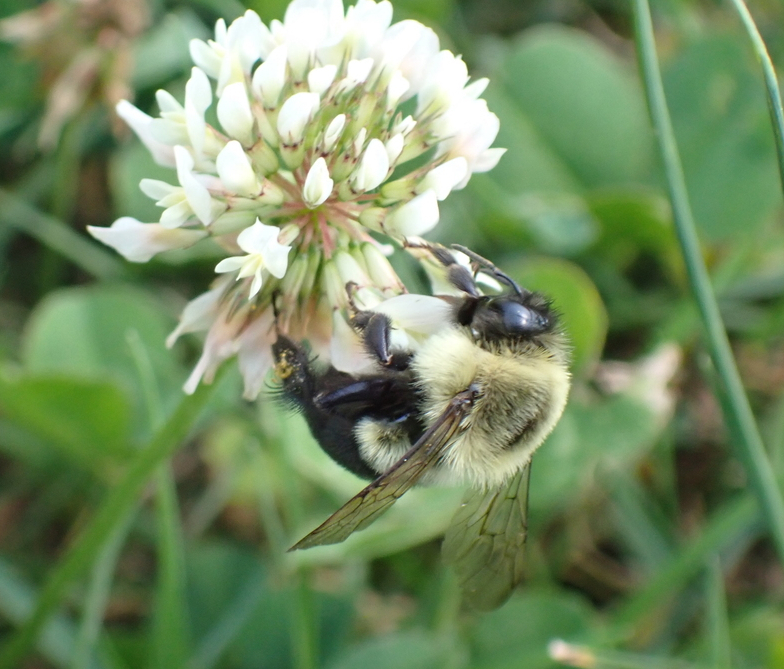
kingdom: Animalia
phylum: Arthropoda
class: Insecta
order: Hymenoptera
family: Apidae
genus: Bombus
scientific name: Bombus impatiens
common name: Common eastern bumble bee
